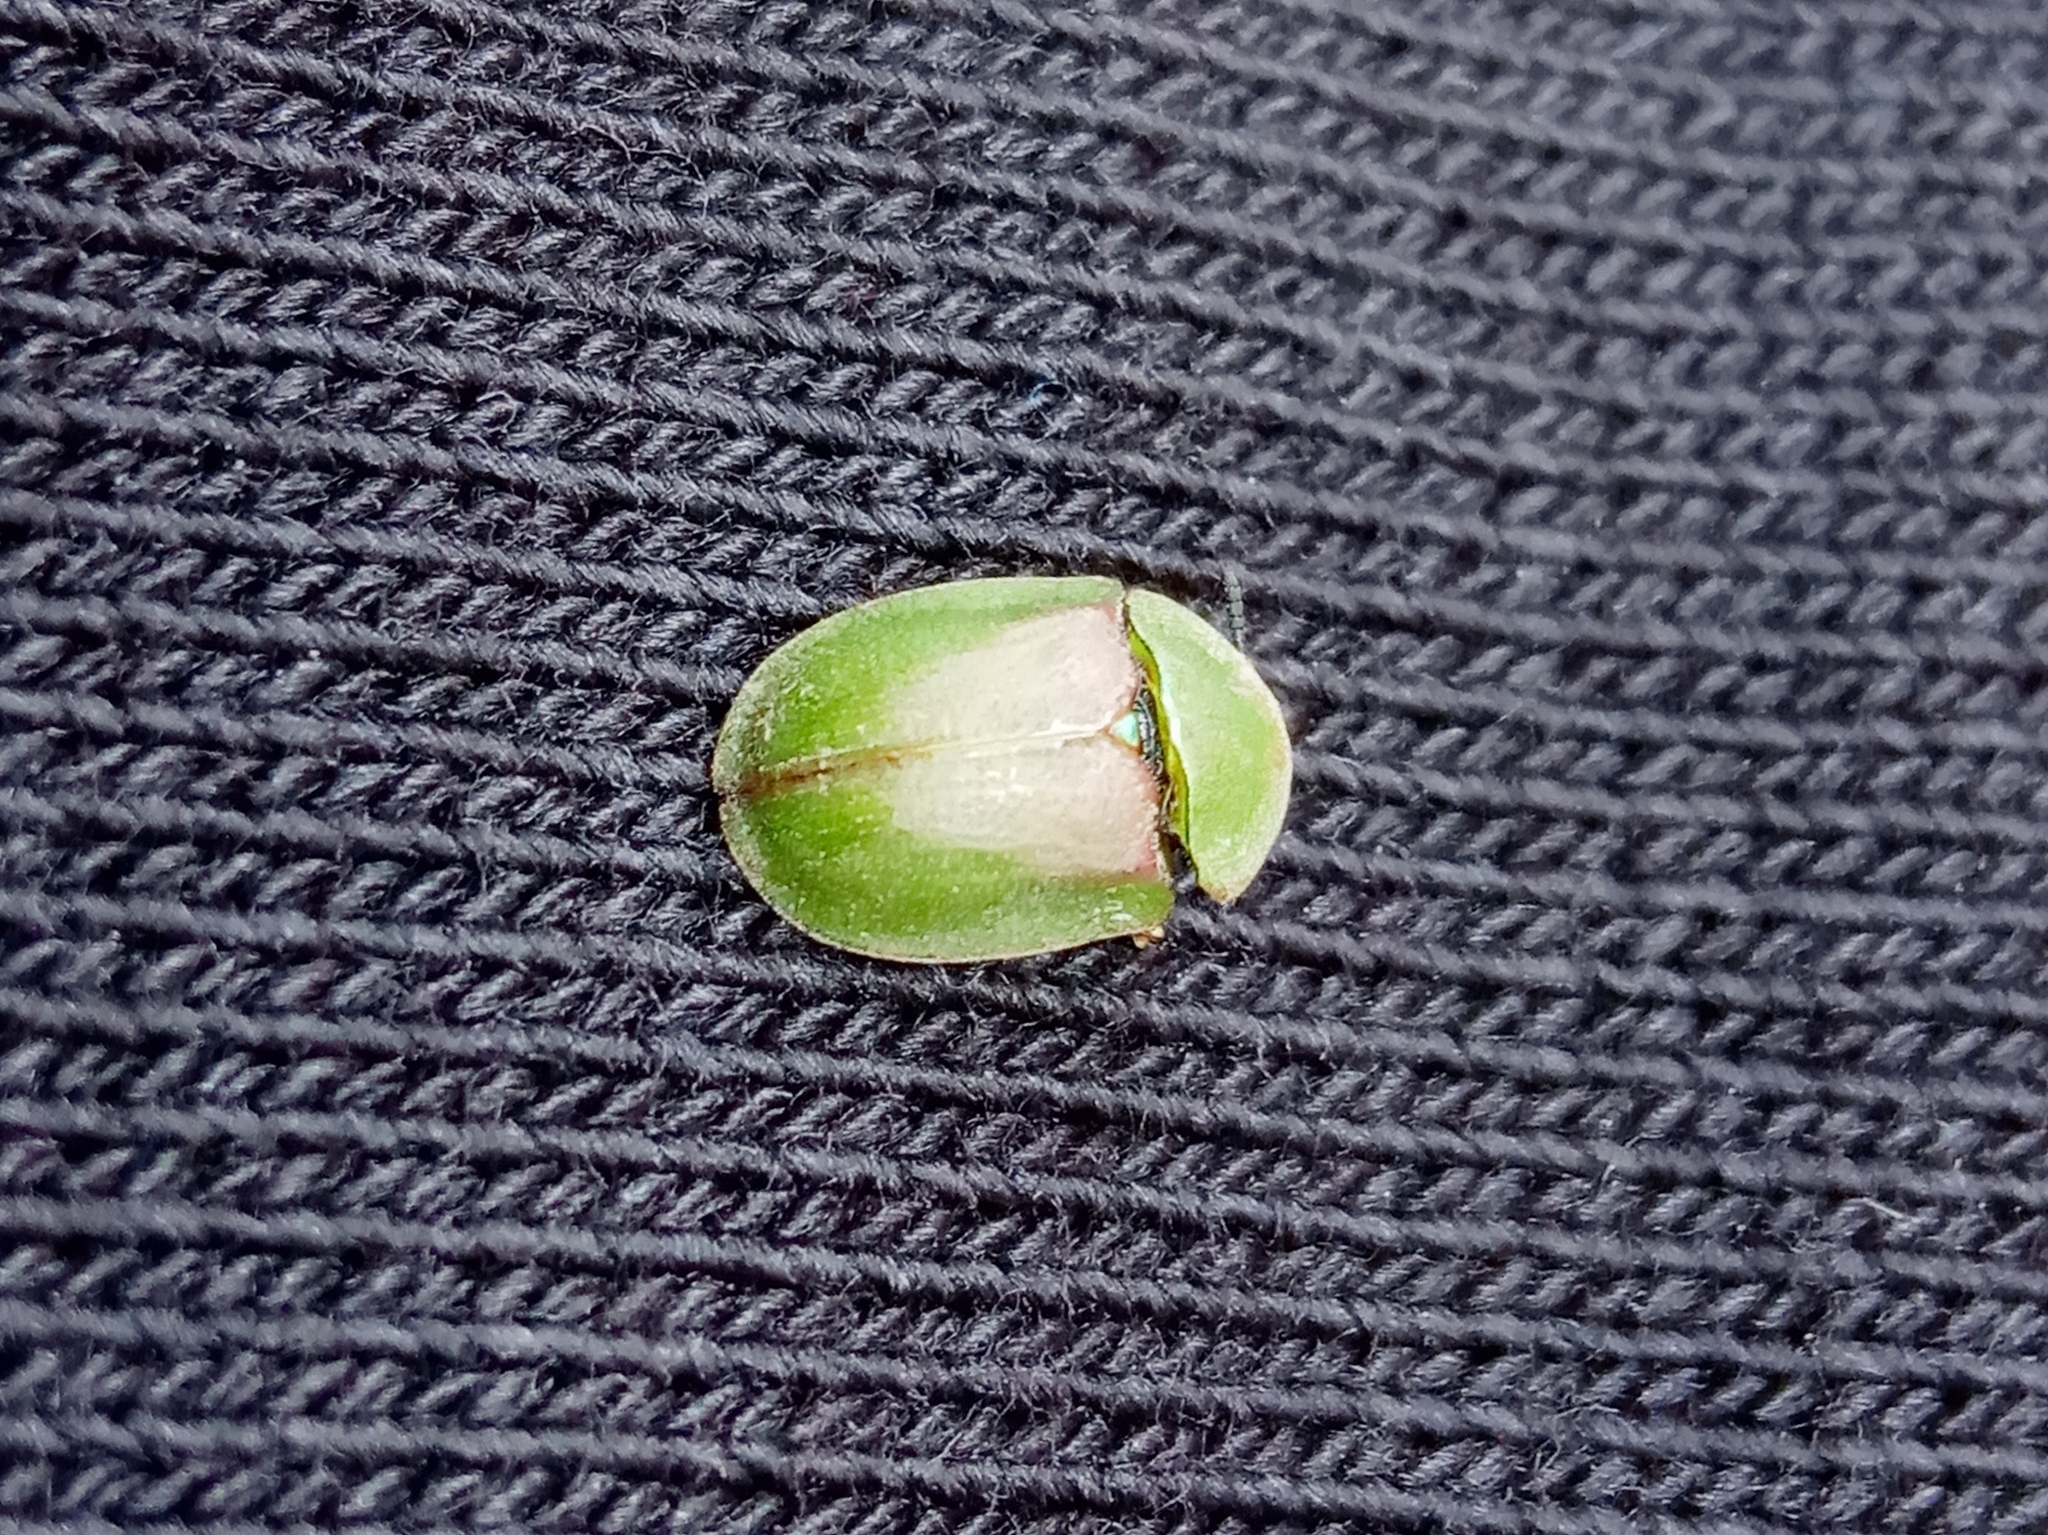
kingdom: Animalia
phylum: Arthropoda
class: Insecta
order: Coleoptera
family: Chrysomelidae
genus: Cassida
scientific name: Cassida rufovirens
